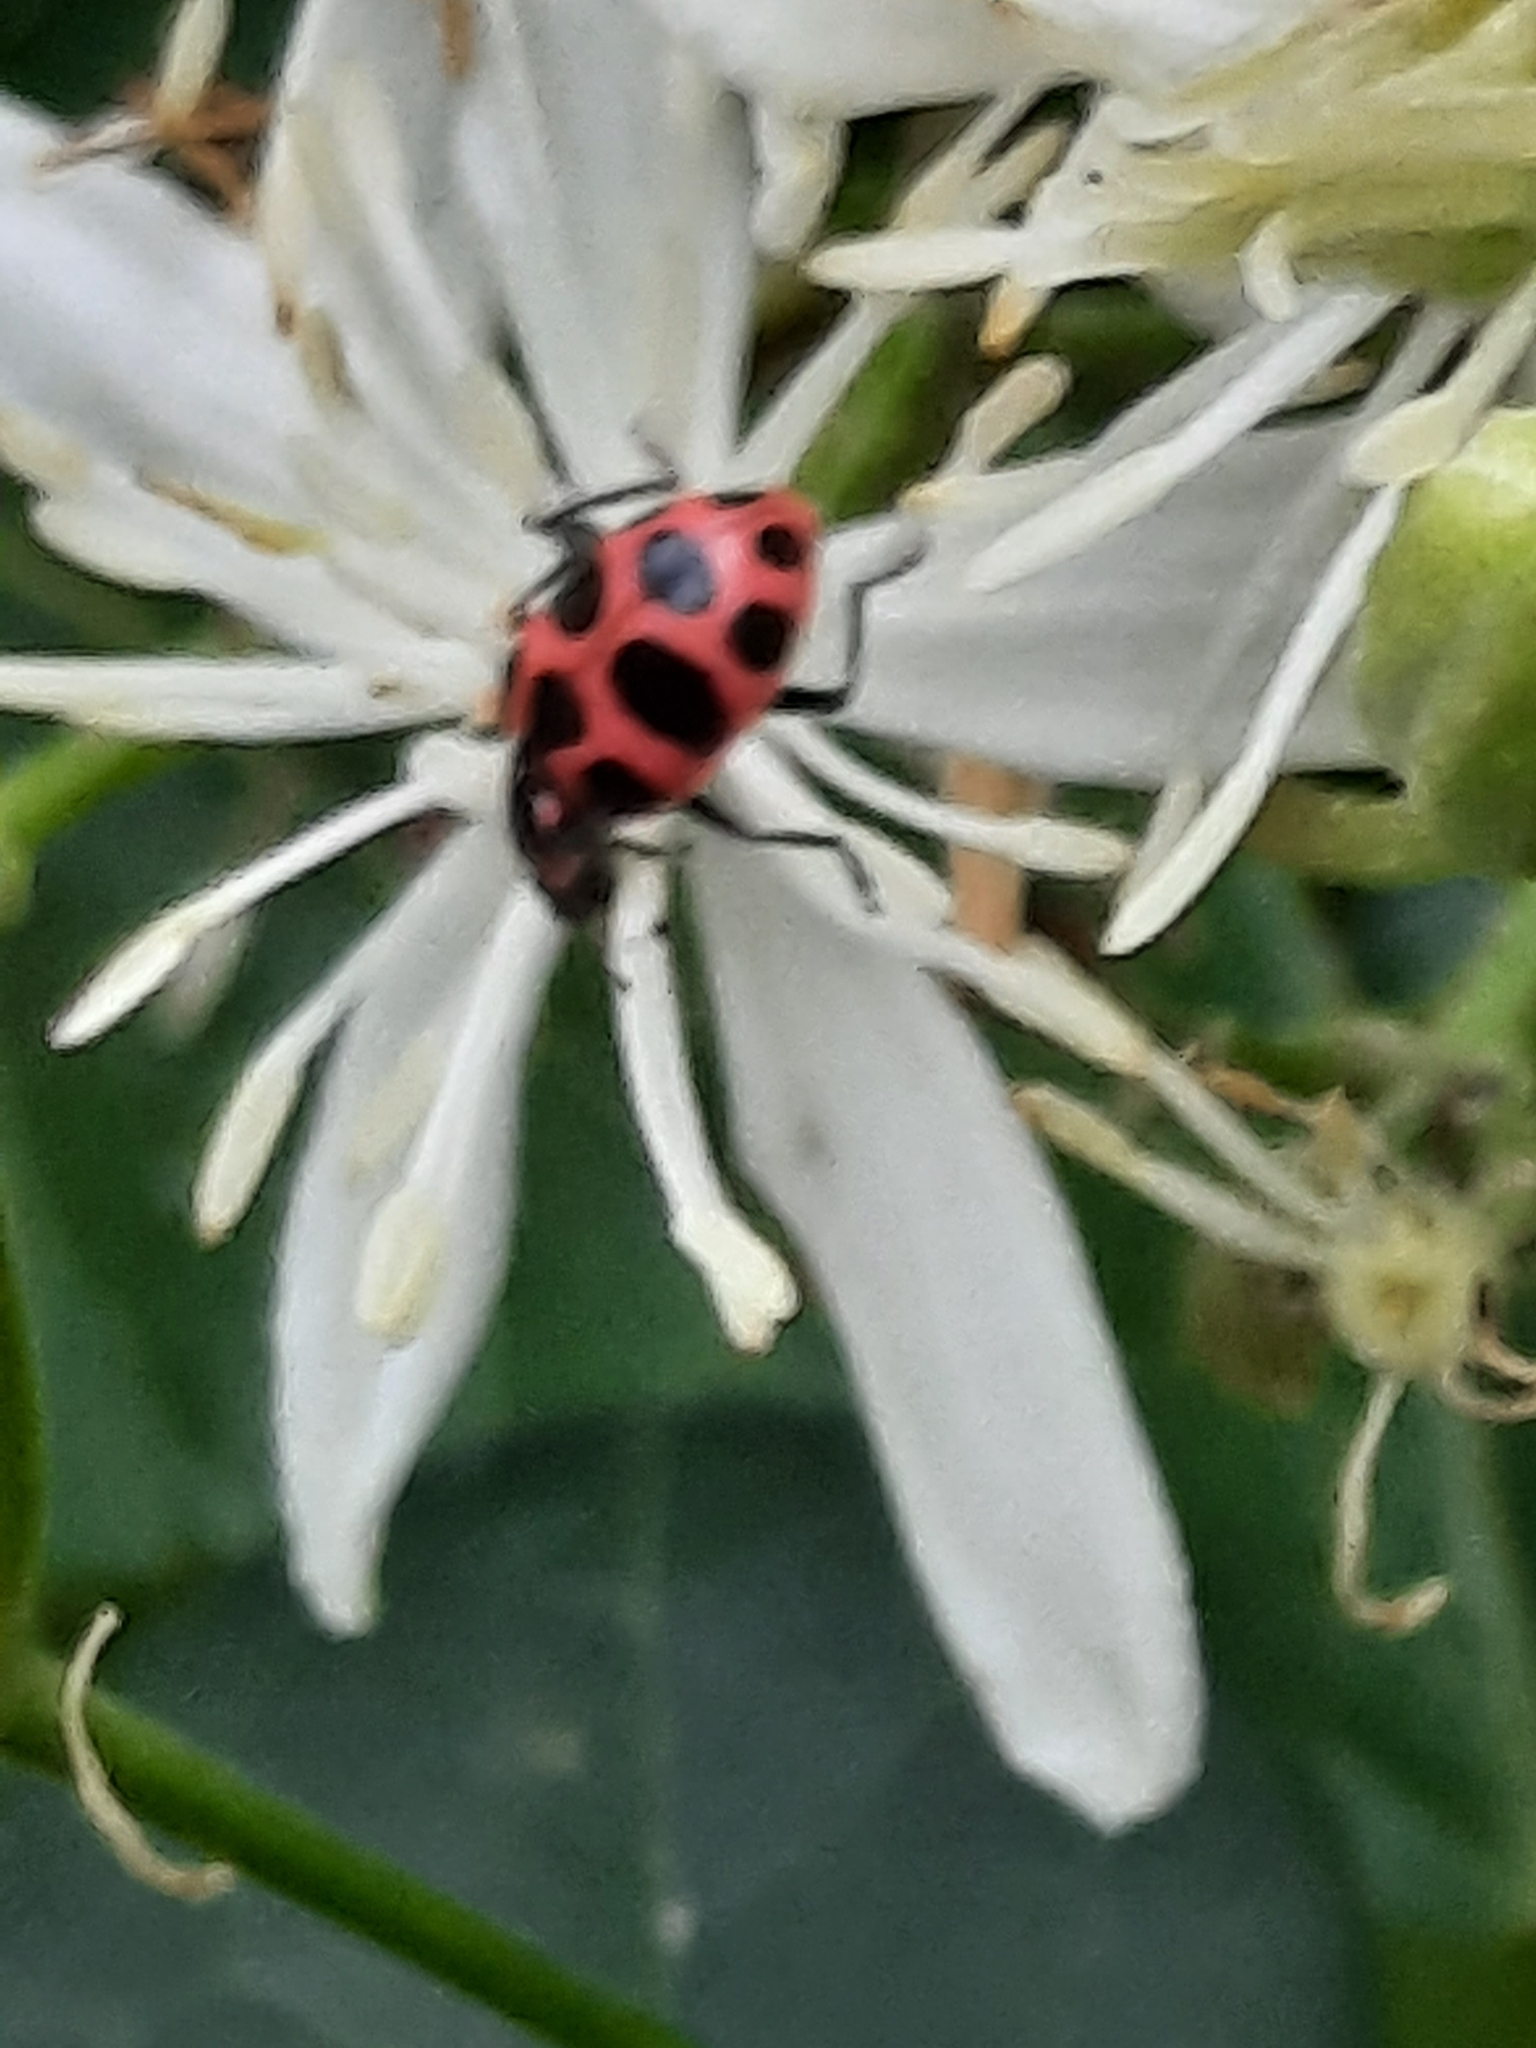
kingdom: Animalia
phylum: Arthropoda
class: Insecta
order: Coleoptera
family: Coccinellidae
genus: Coleomegilla
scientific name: Coleomegilla maculata
